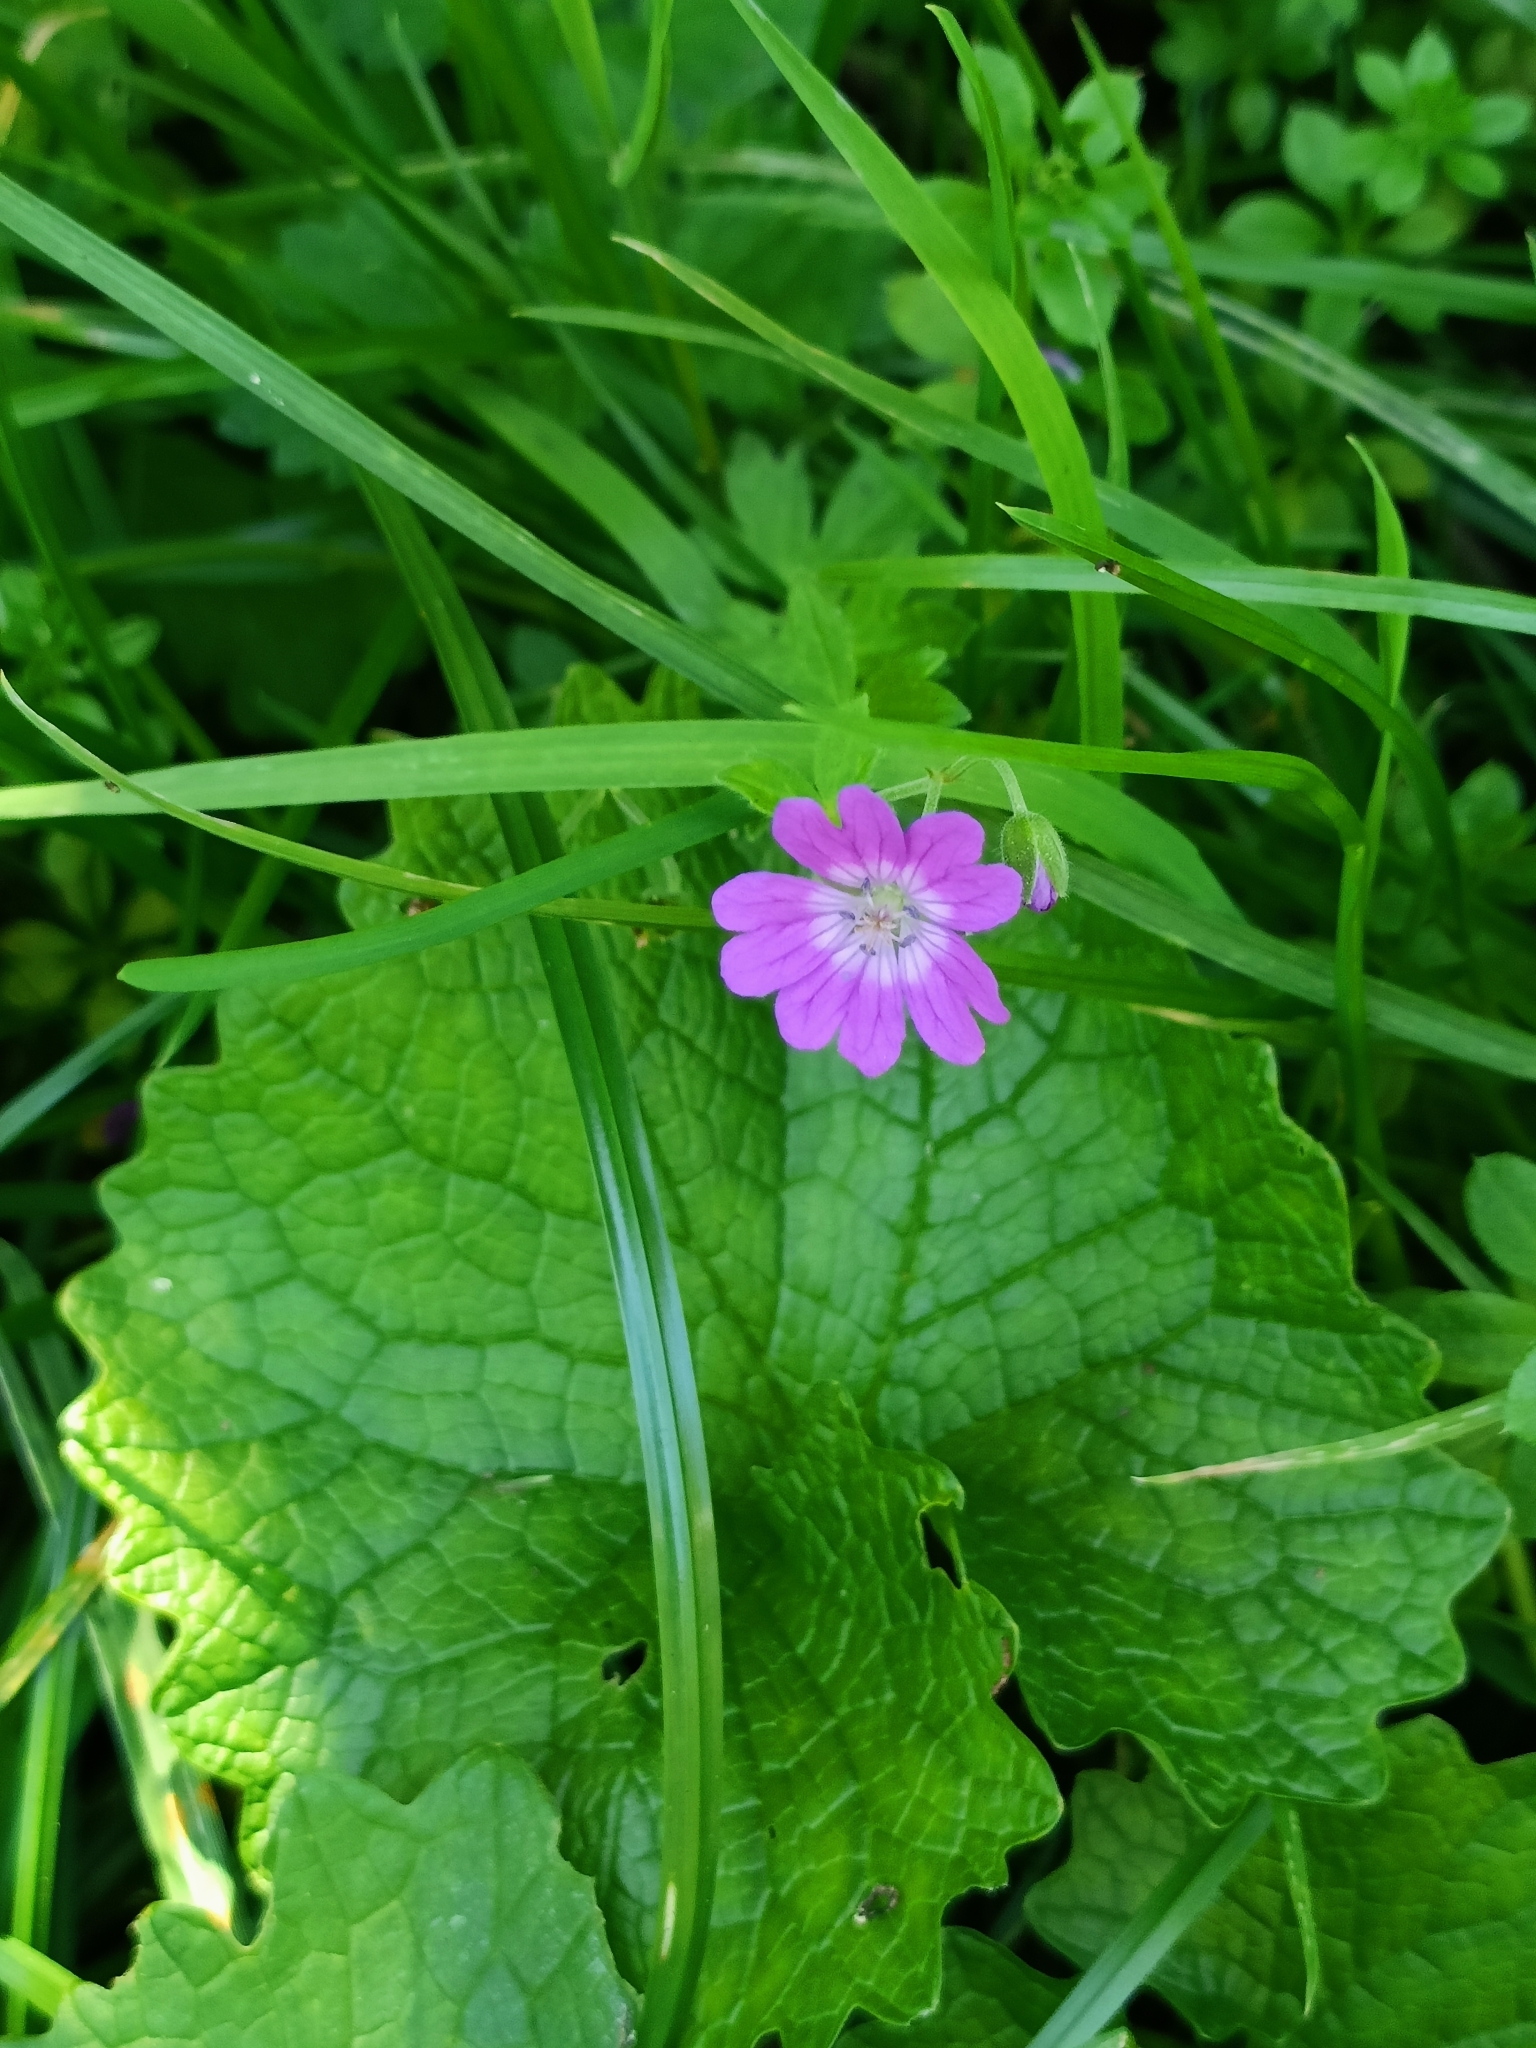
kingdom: Plantae
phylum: Tracheophyta
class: Magnoliopsida
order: Geraniales
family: Geraniaceae
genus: Geranium
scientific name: Geranium pyrenaicum
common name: Hedgerow crane's-bill
